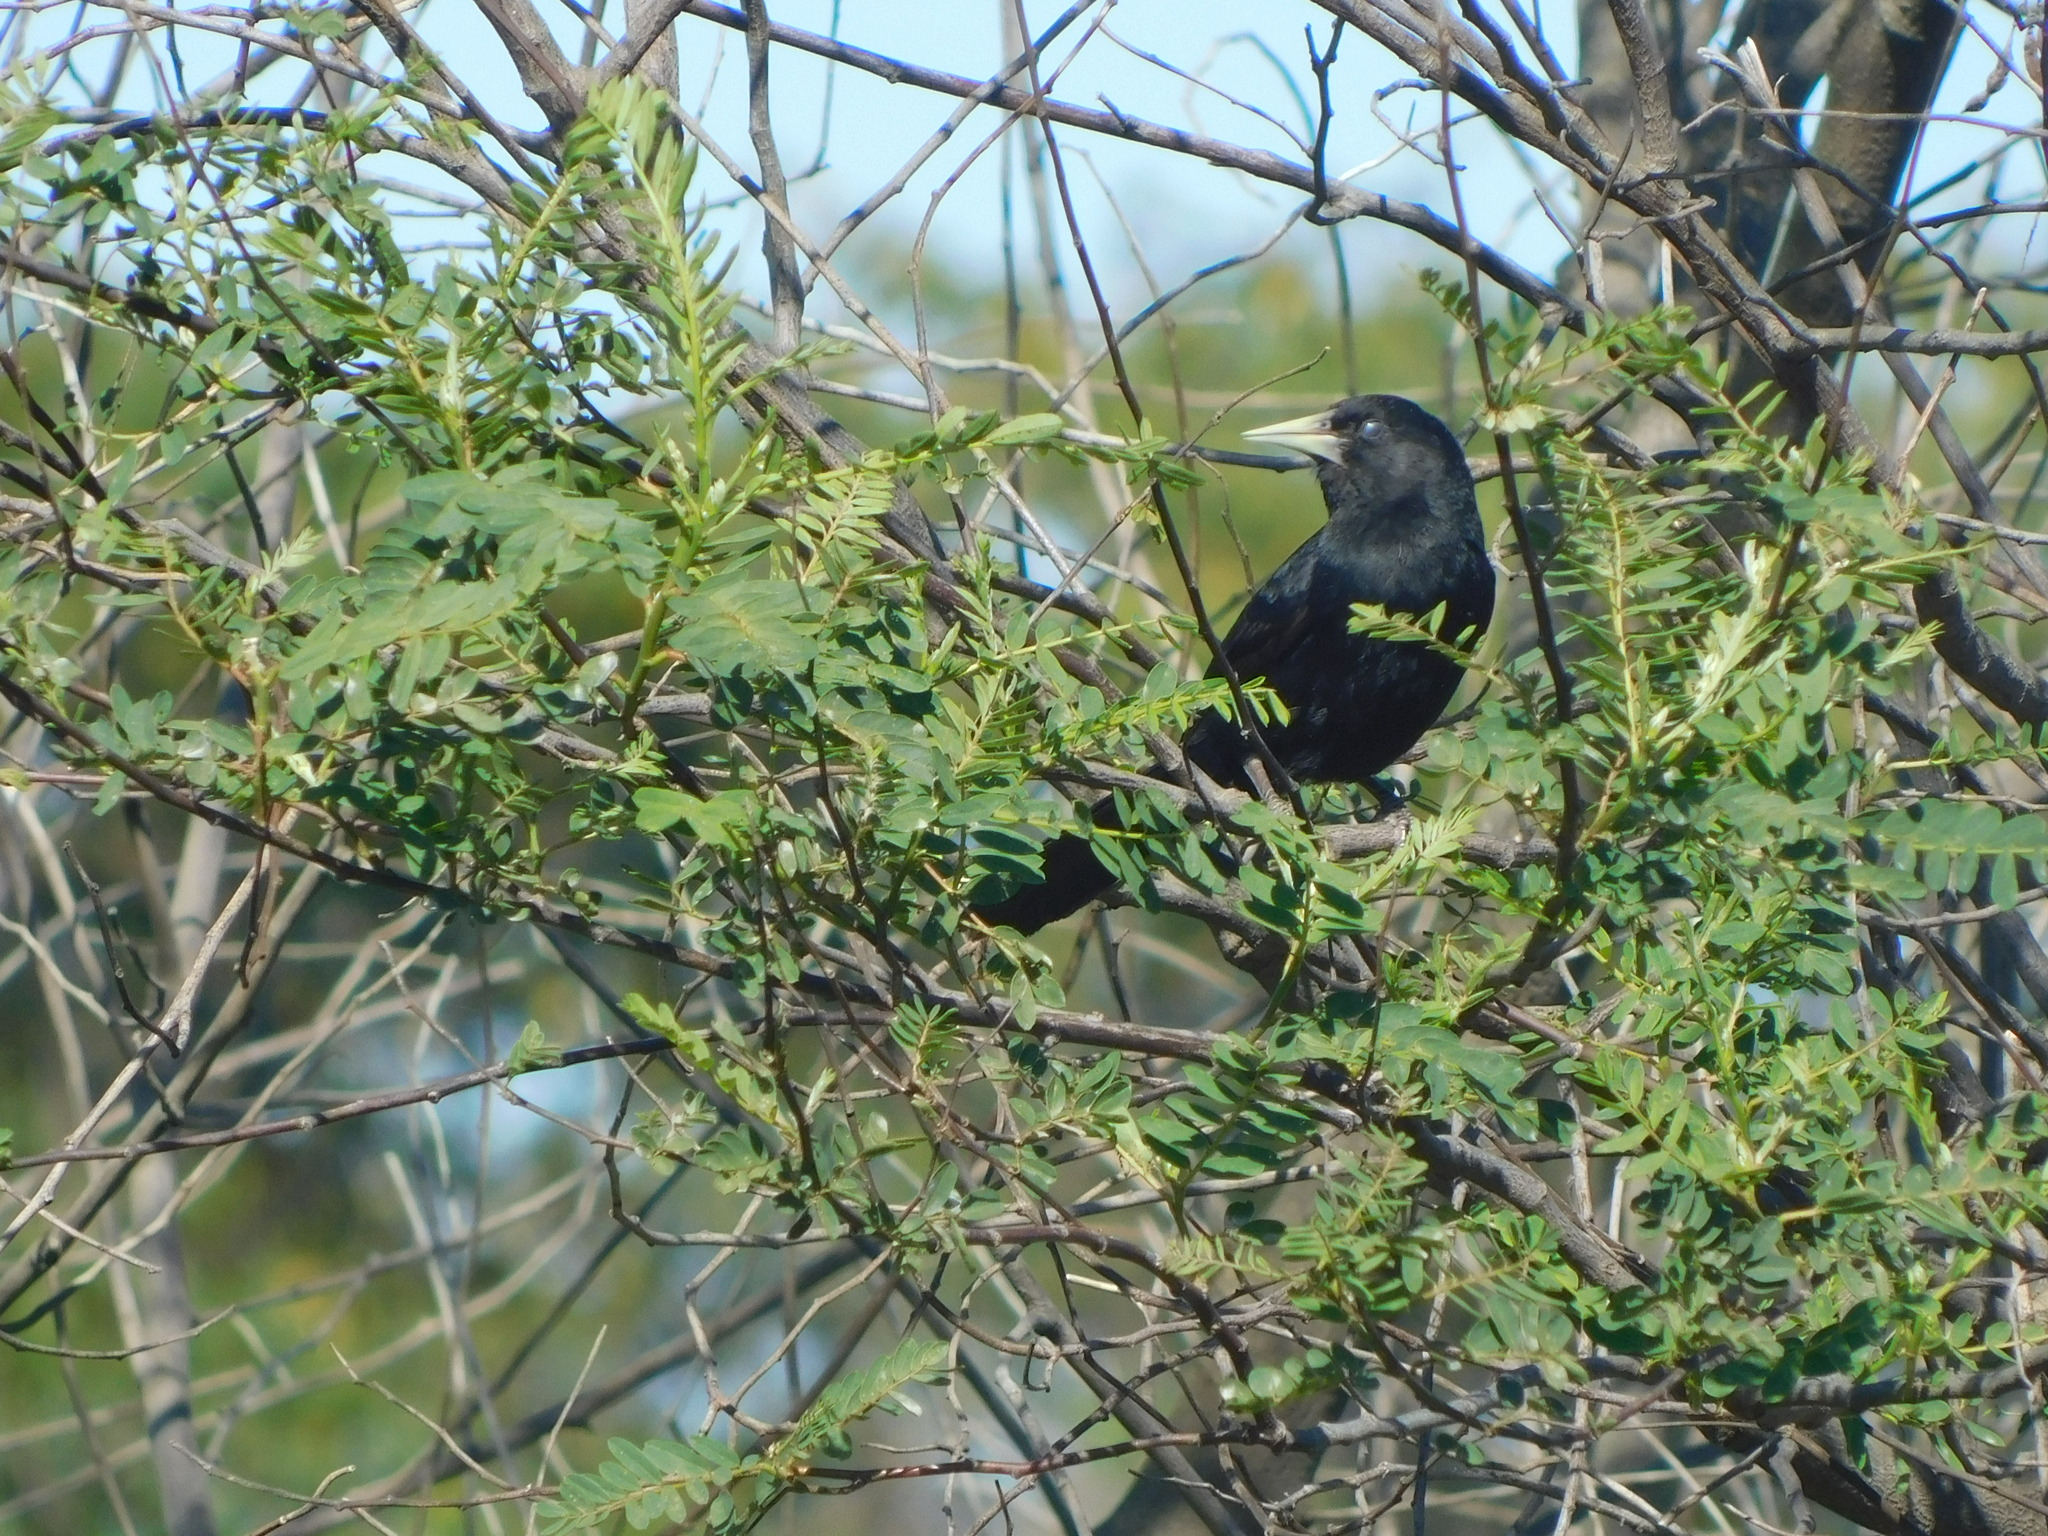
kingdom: Animalia
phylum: Chordata
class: Aves
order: Passeriformes
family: Icteridae
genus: Cacicus
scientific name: Cacicus solitarius
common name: Solitary cacique
